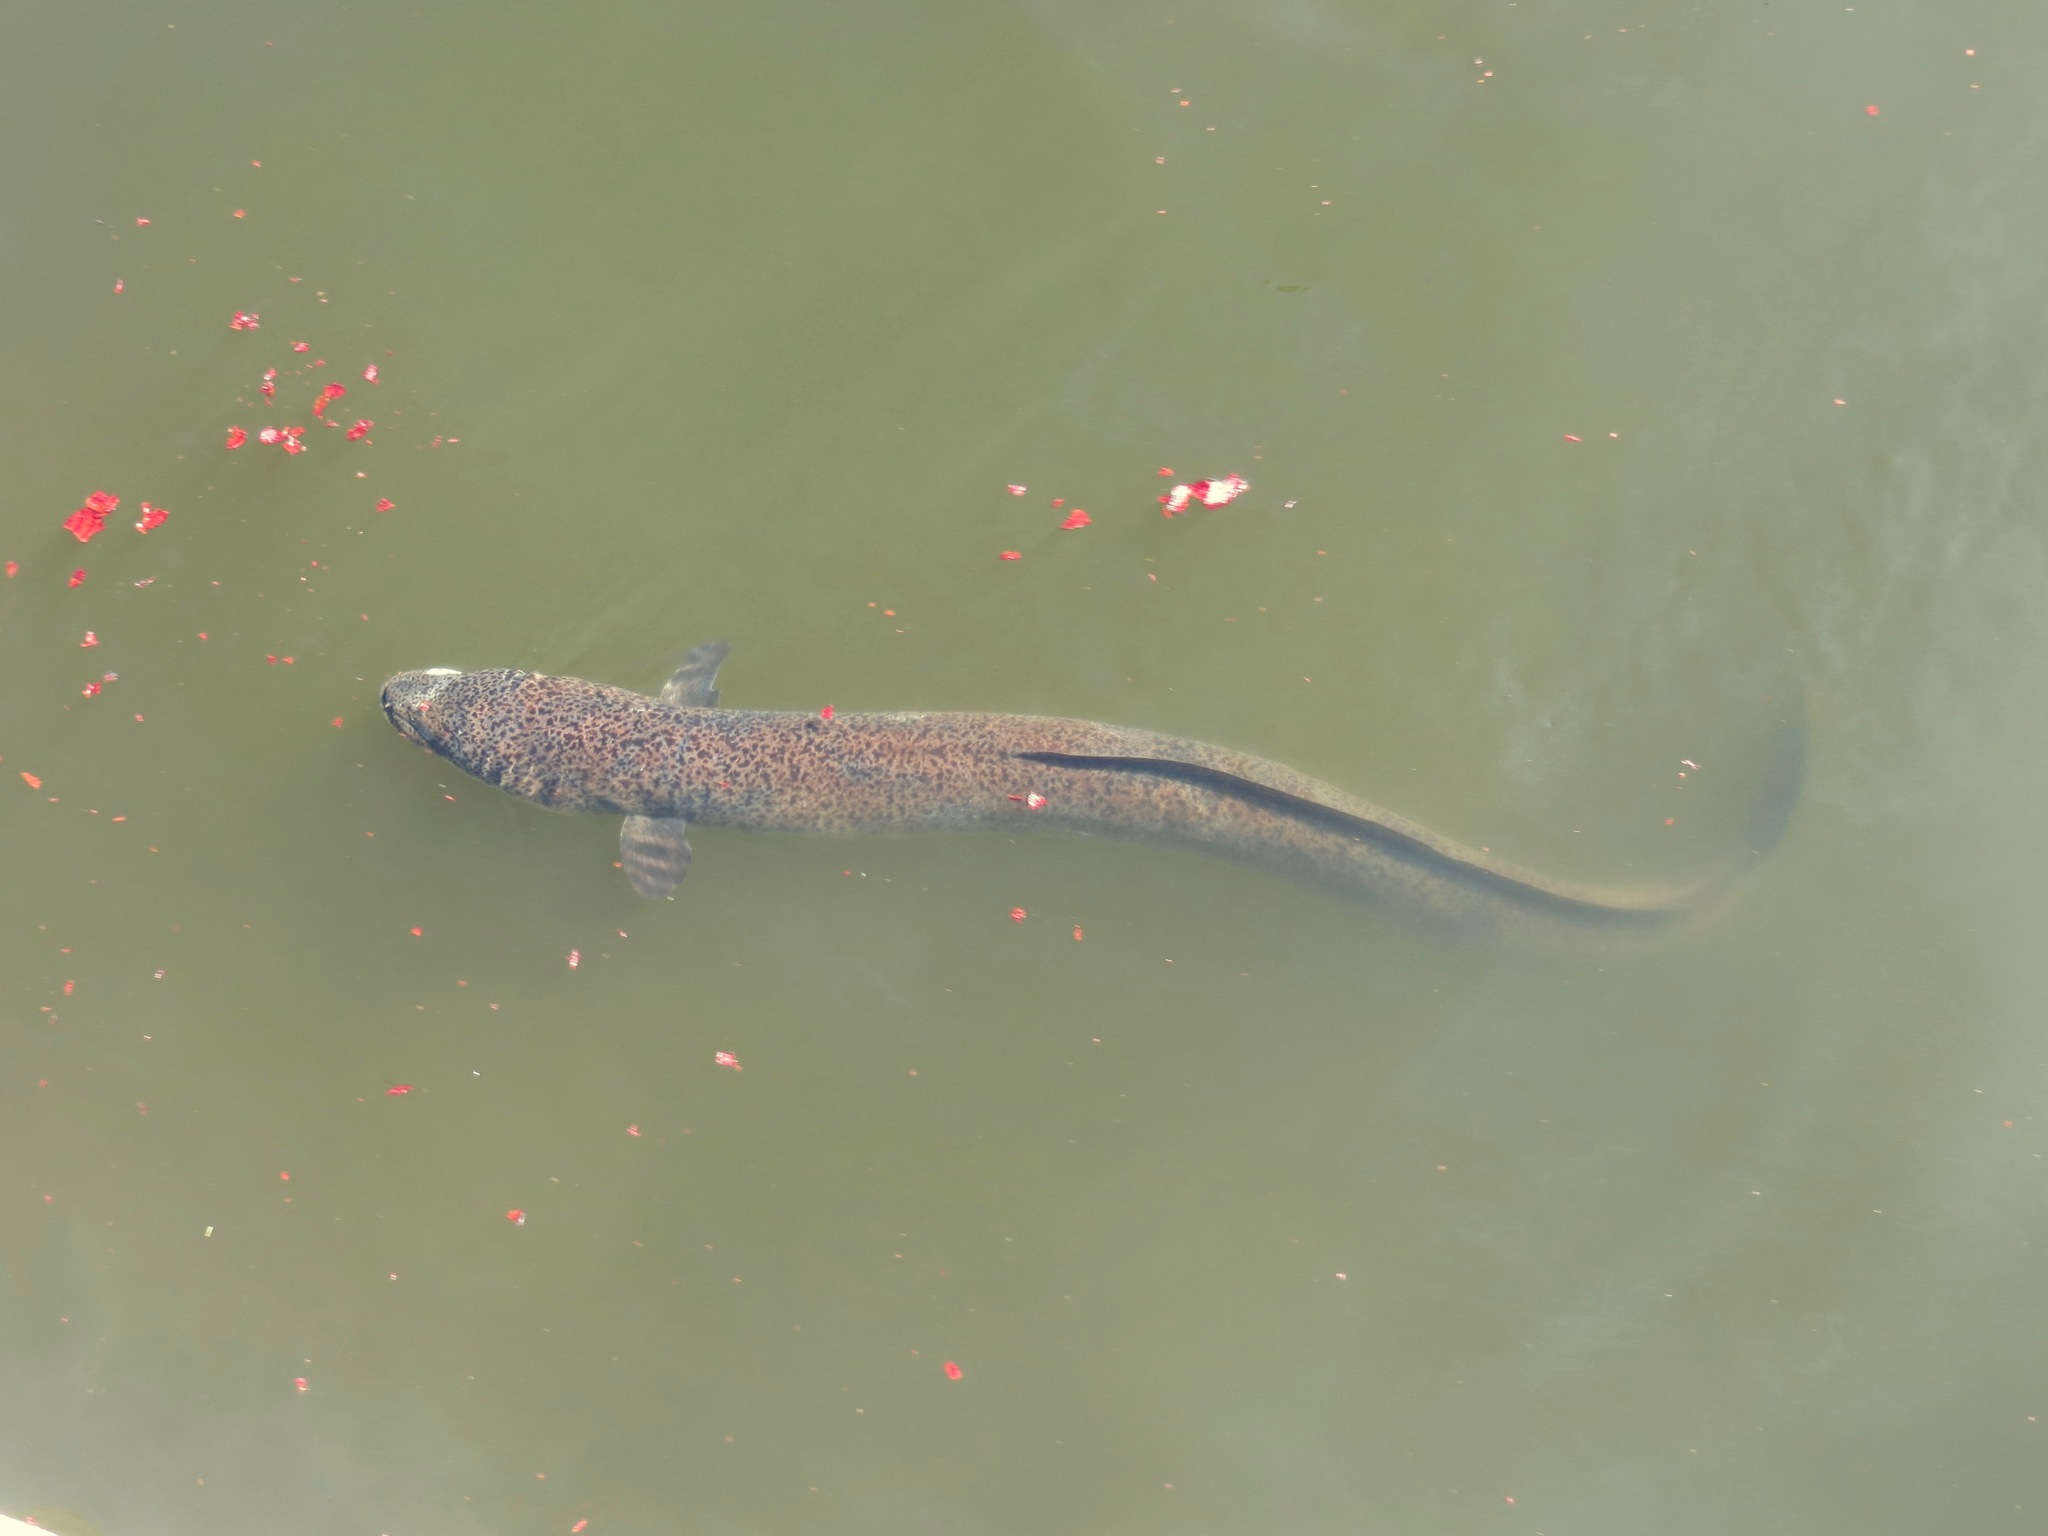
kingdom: Animalia
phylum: Chordata
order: Anguilliformes
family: Anguillidae
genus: Anguilla
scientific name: Anguilla reinhardtii
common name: Longfin eel
